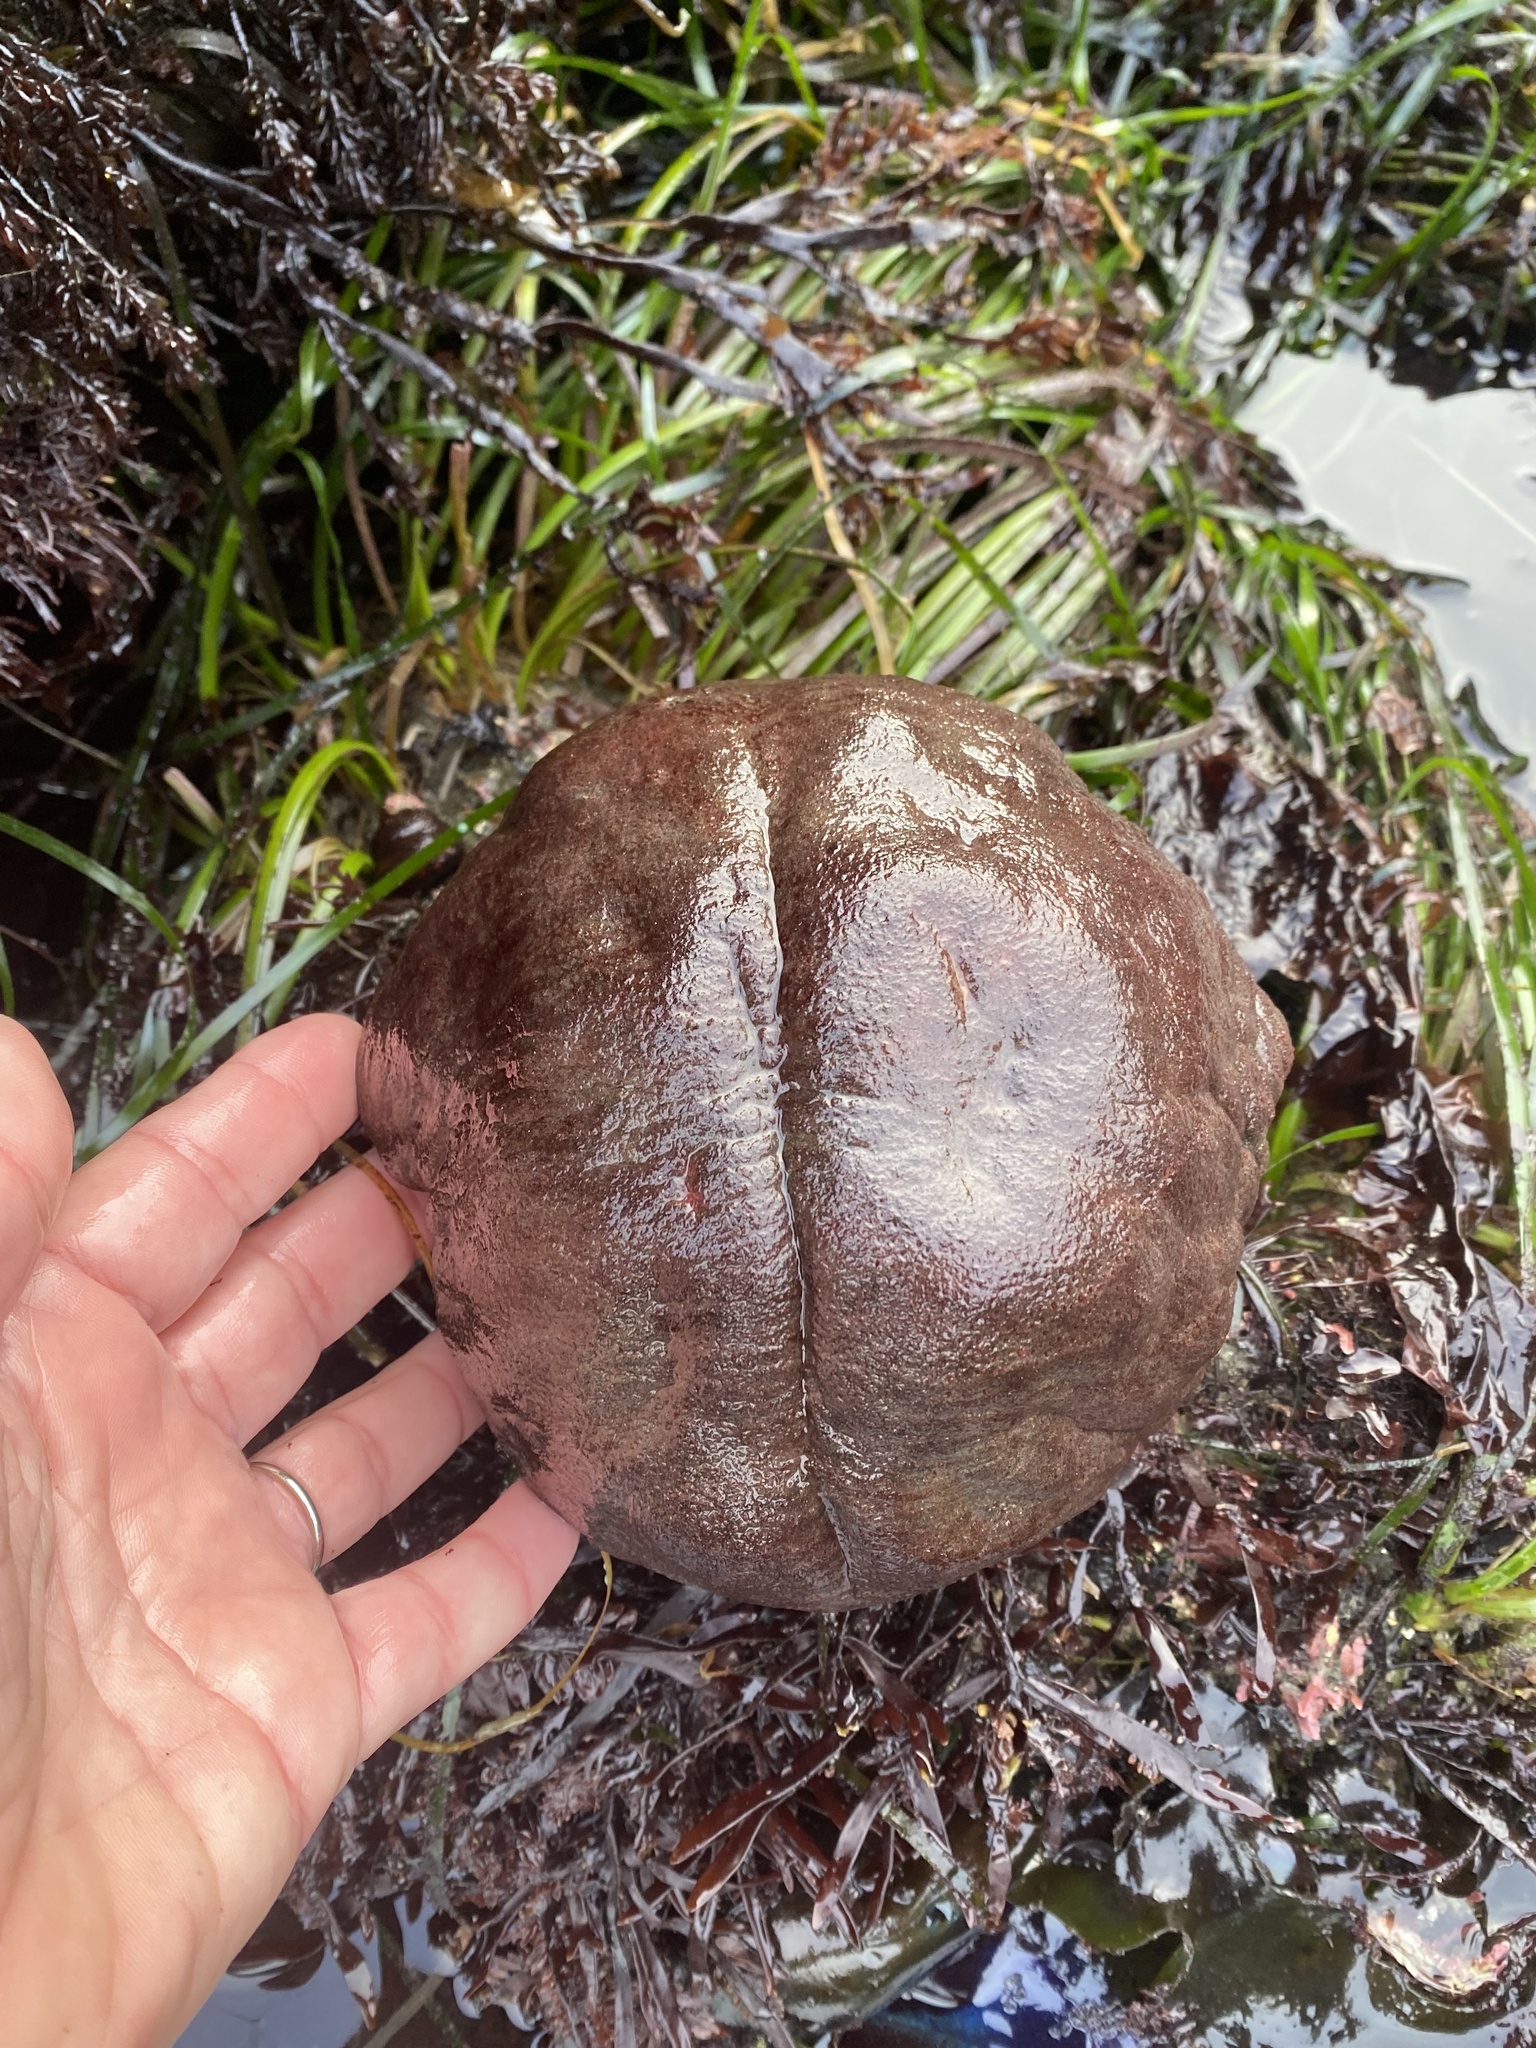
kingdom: Animalia
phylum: Mollusca
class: Polyplacophora
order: Chitonida
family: Acanthochitonidae
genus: Cryptochiton
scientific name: Cryptochiton stelleri
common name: Giant pacific chiton
